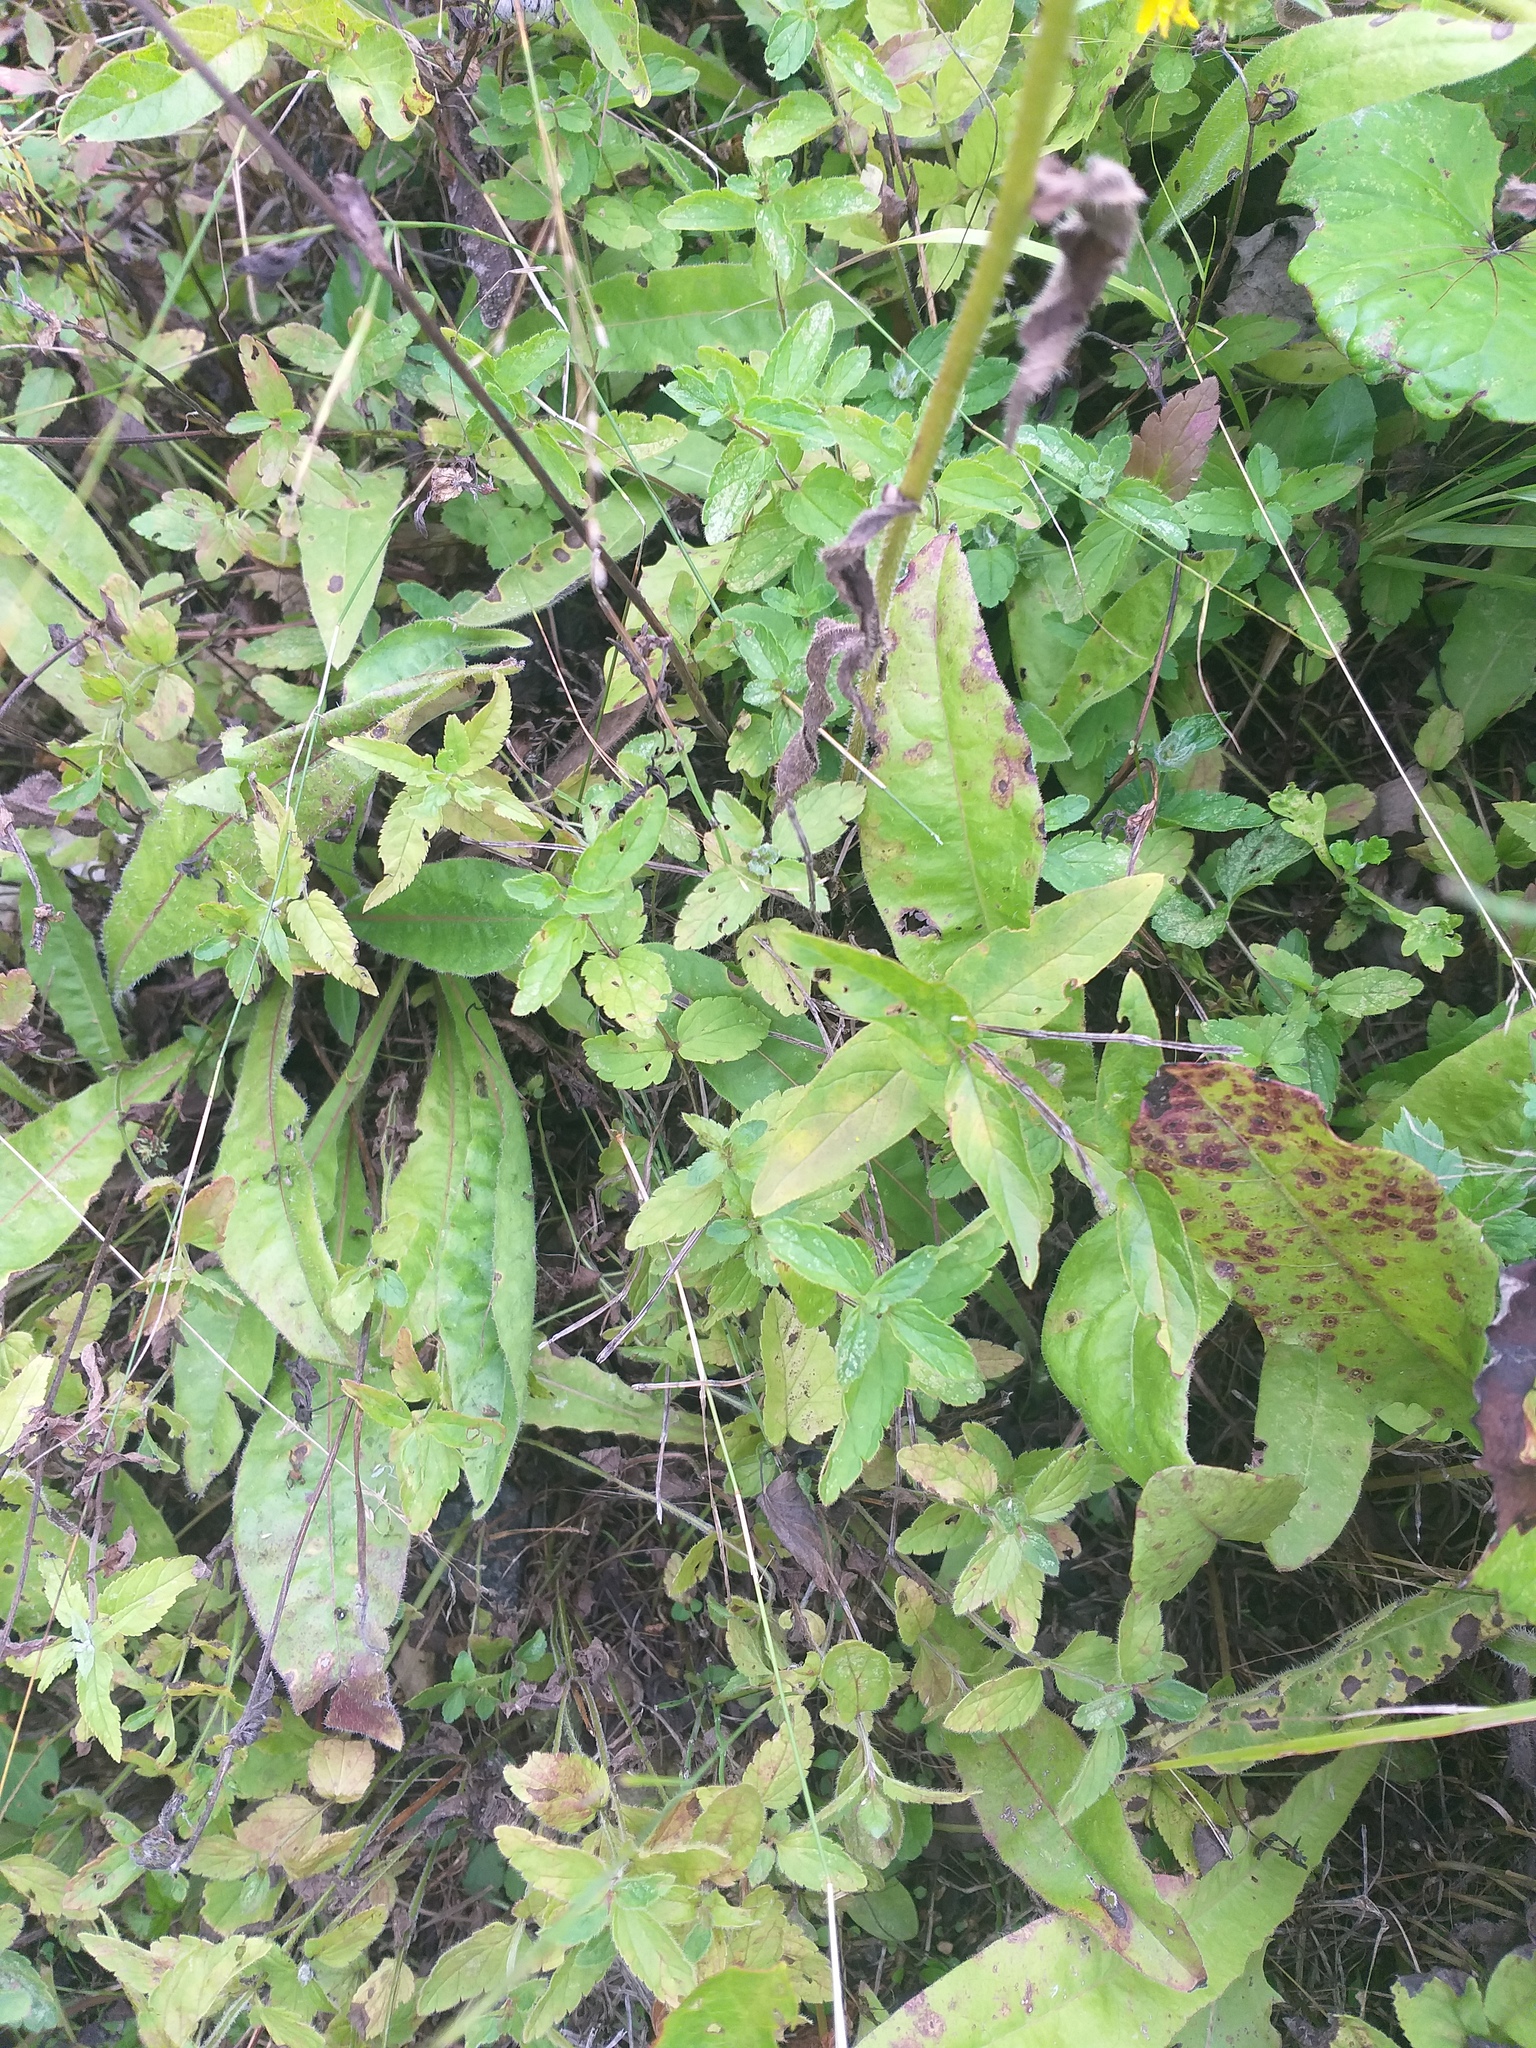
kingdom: Plantae
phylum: Tracheophyta
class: Magnoliopsida
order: Lamiales
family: Plantaginaceae
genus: Veronica
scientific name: Veronica chamaedrys
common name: Germander speedwell
